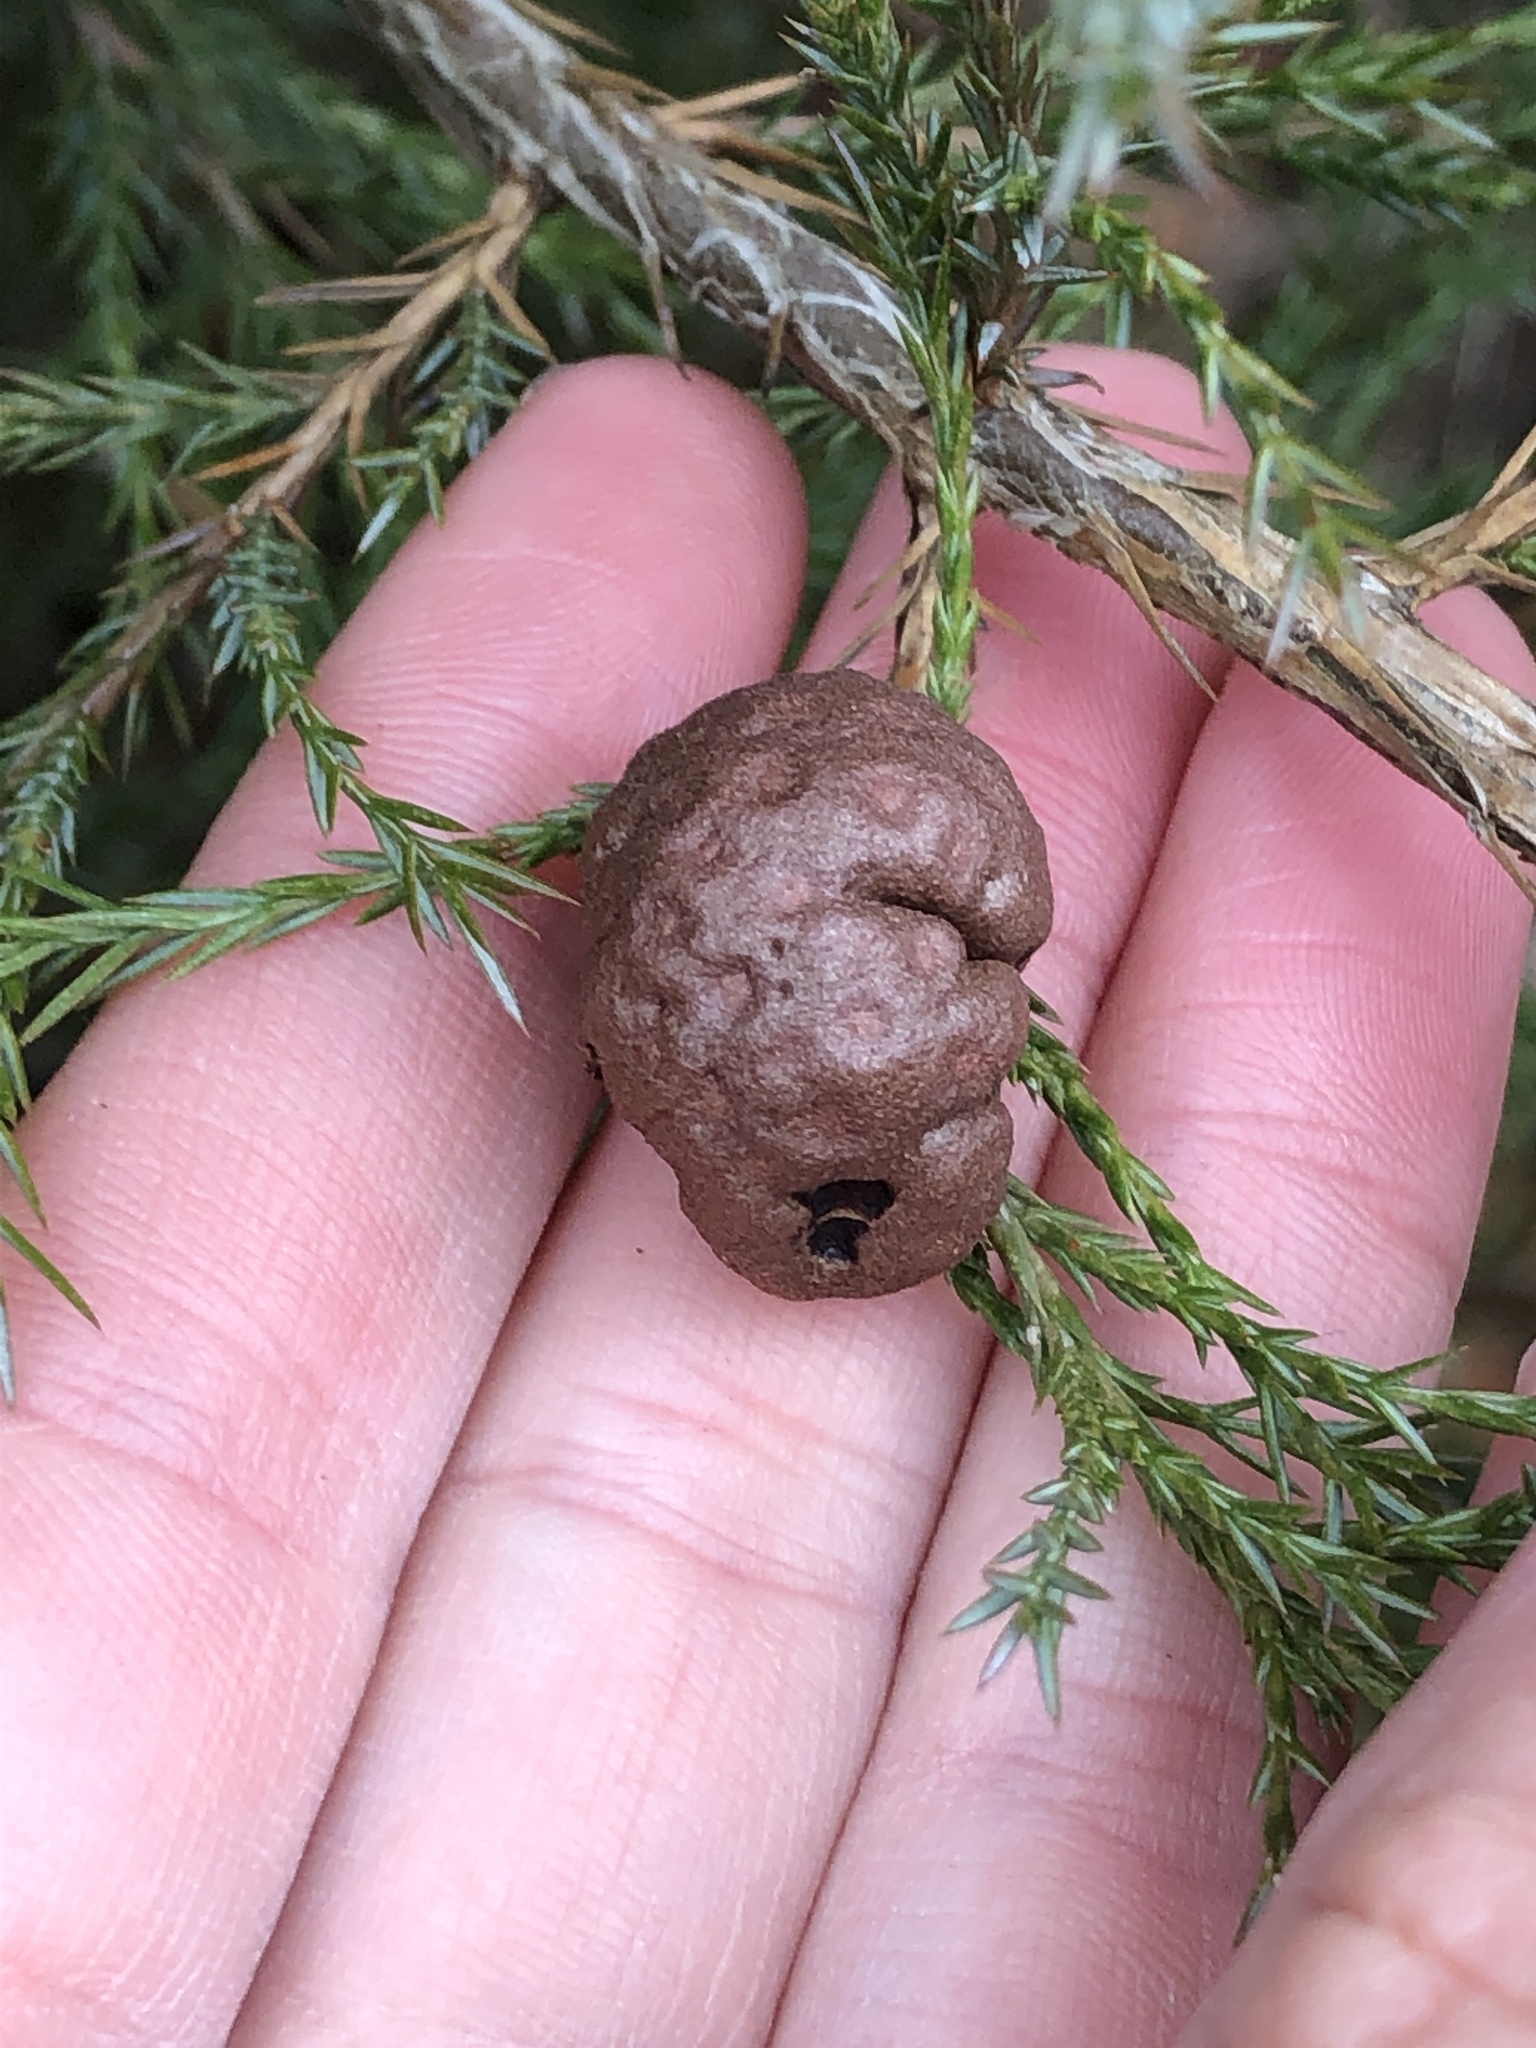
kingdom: Fungi
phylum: Basidiomycota
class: Pucciniomycetes
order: Pucciniales
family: Gymnosporangiaceae
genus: Gymnosporangium
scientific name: Gymnosporangium juniperi-virginianae
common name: Juniper-apple rust
